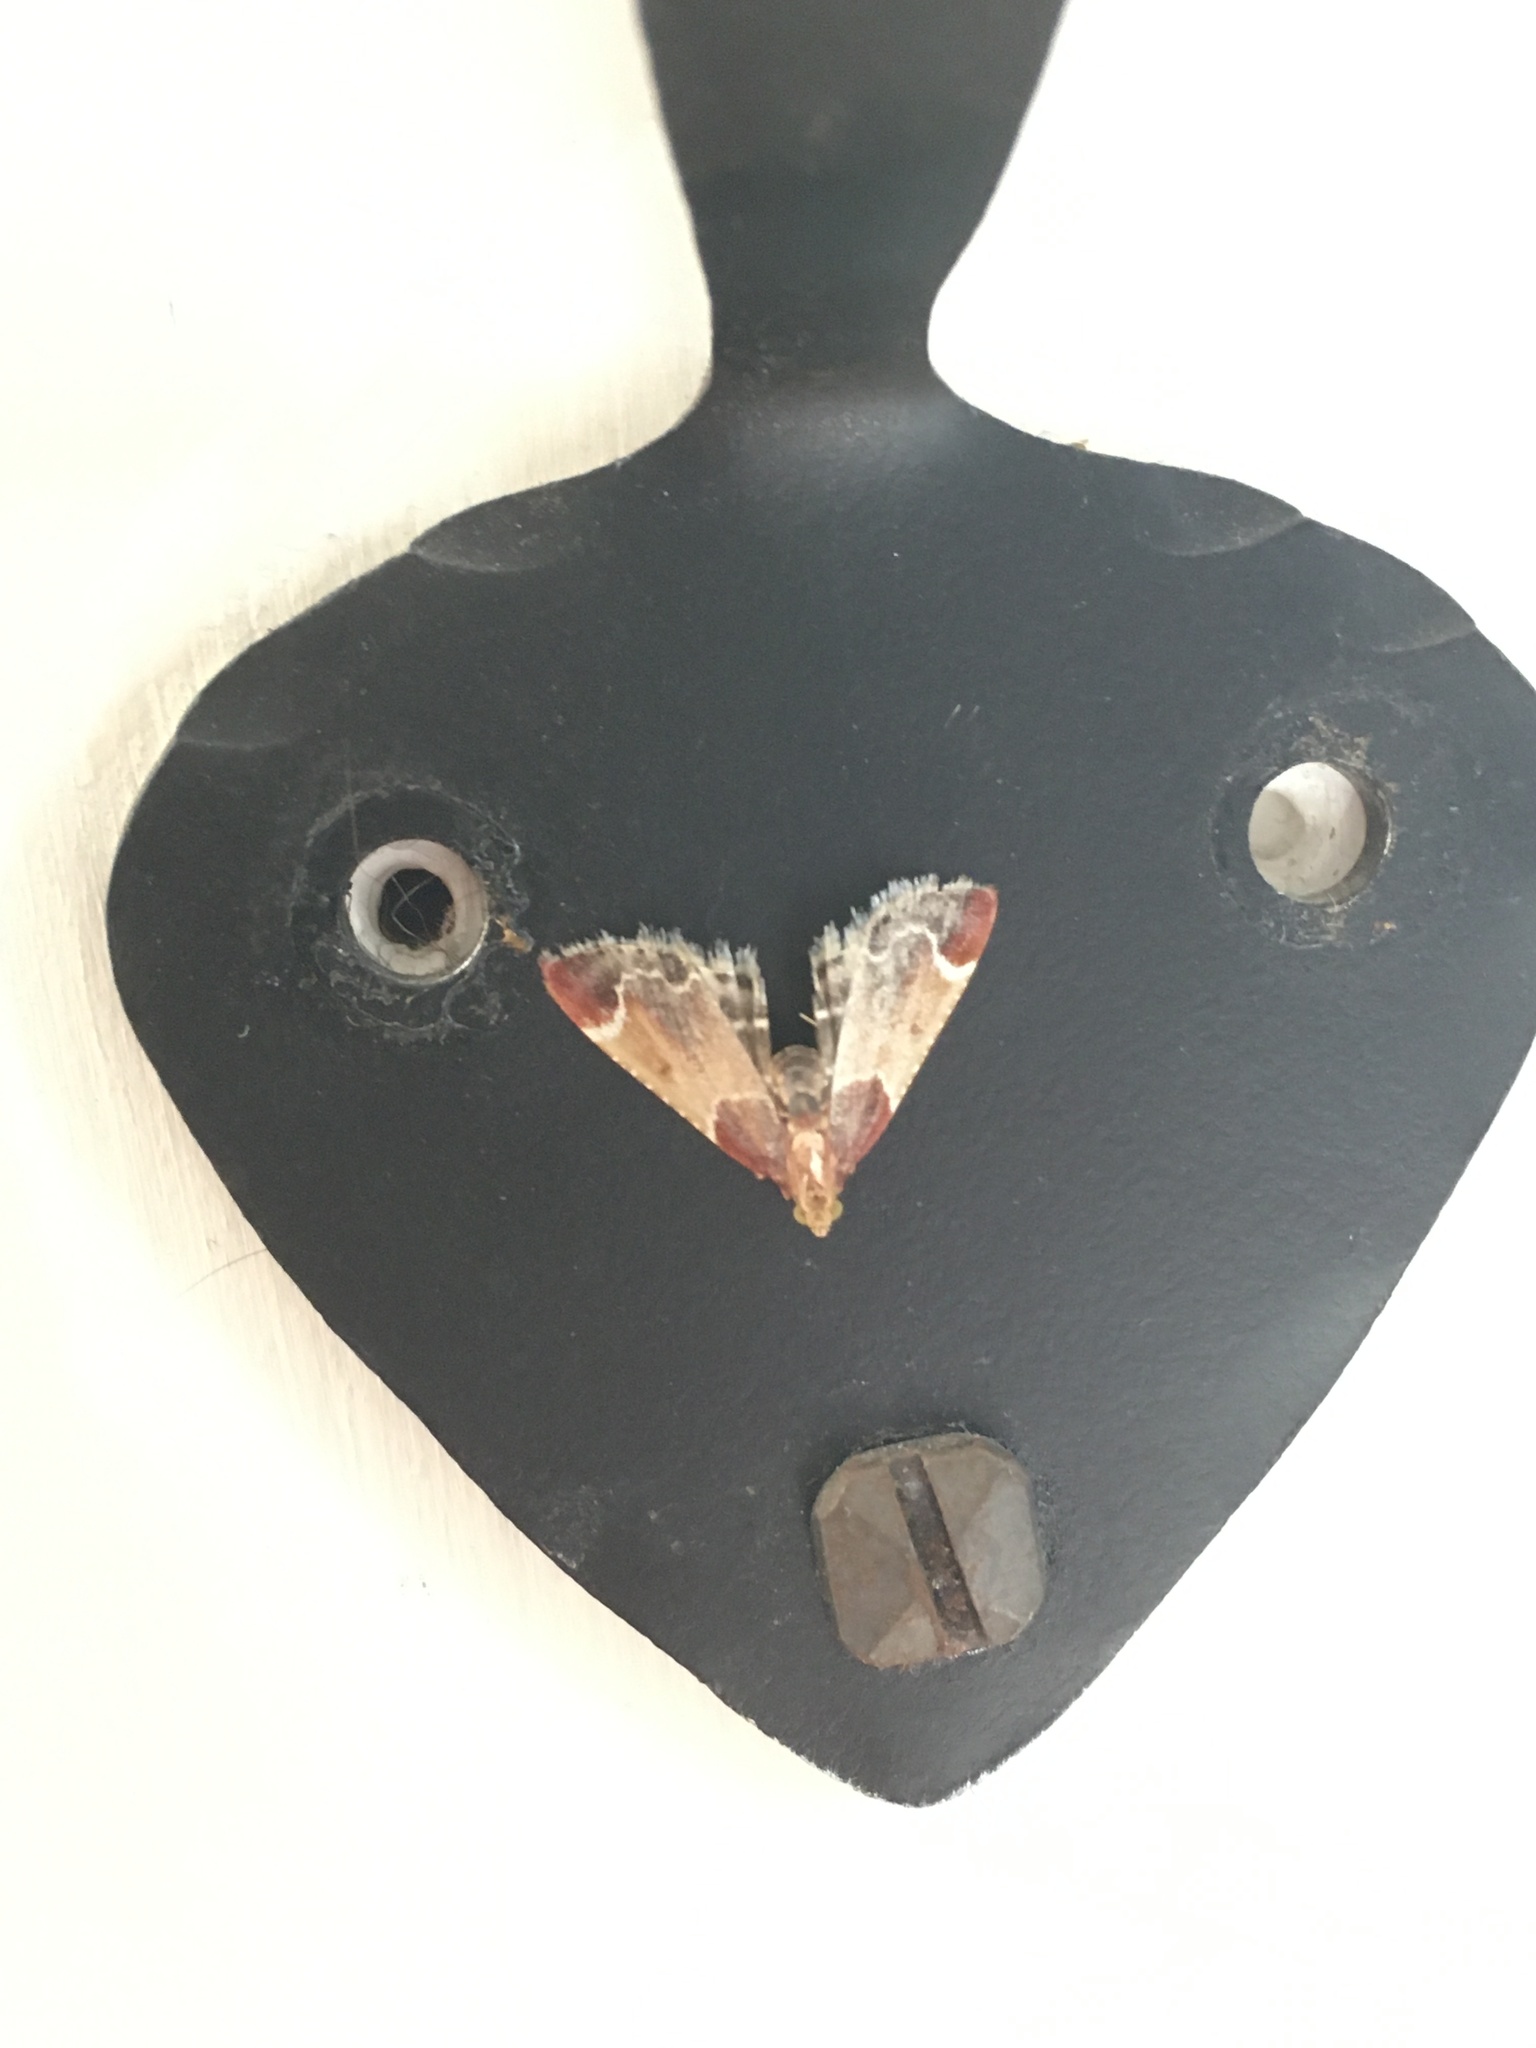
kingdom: Animalia
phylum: Arthropoda
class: Insecta
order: Lepidoptera
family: Pyralidae
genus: Pyralis
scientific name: Pyralis farinalis
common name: Meal moth
